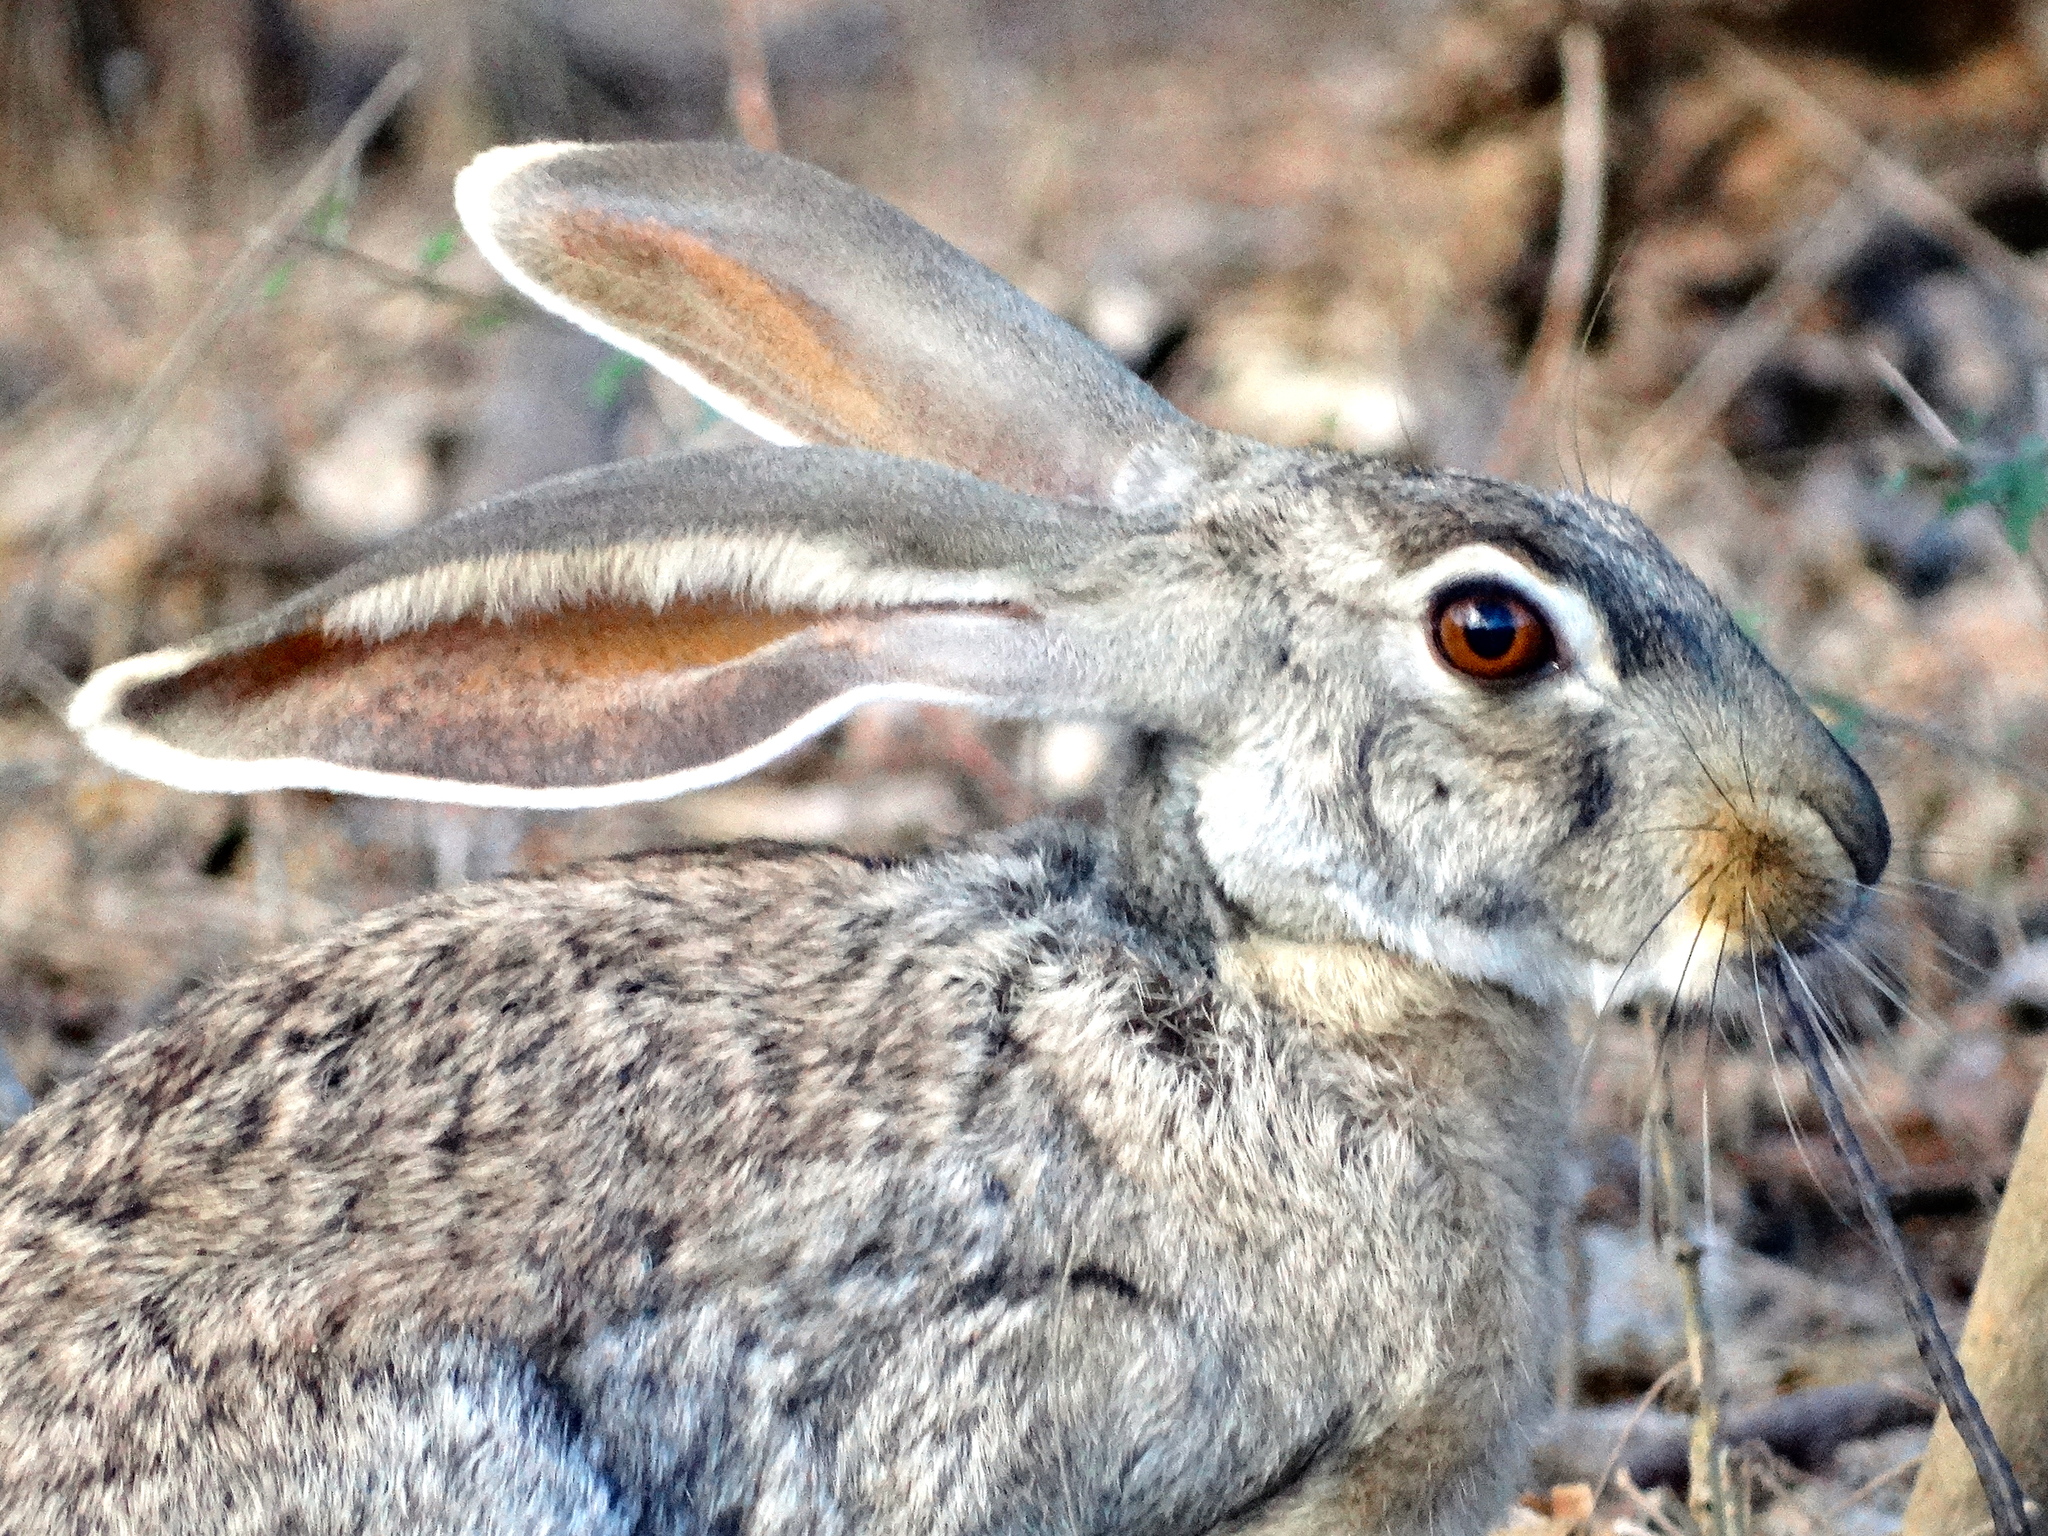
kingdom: Animalia
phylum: Chordata
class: Mammalia
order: Lagomorpha
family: Leporidae
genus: Lepus
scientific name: Lepus alleni
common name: Antelope jackrabbit
